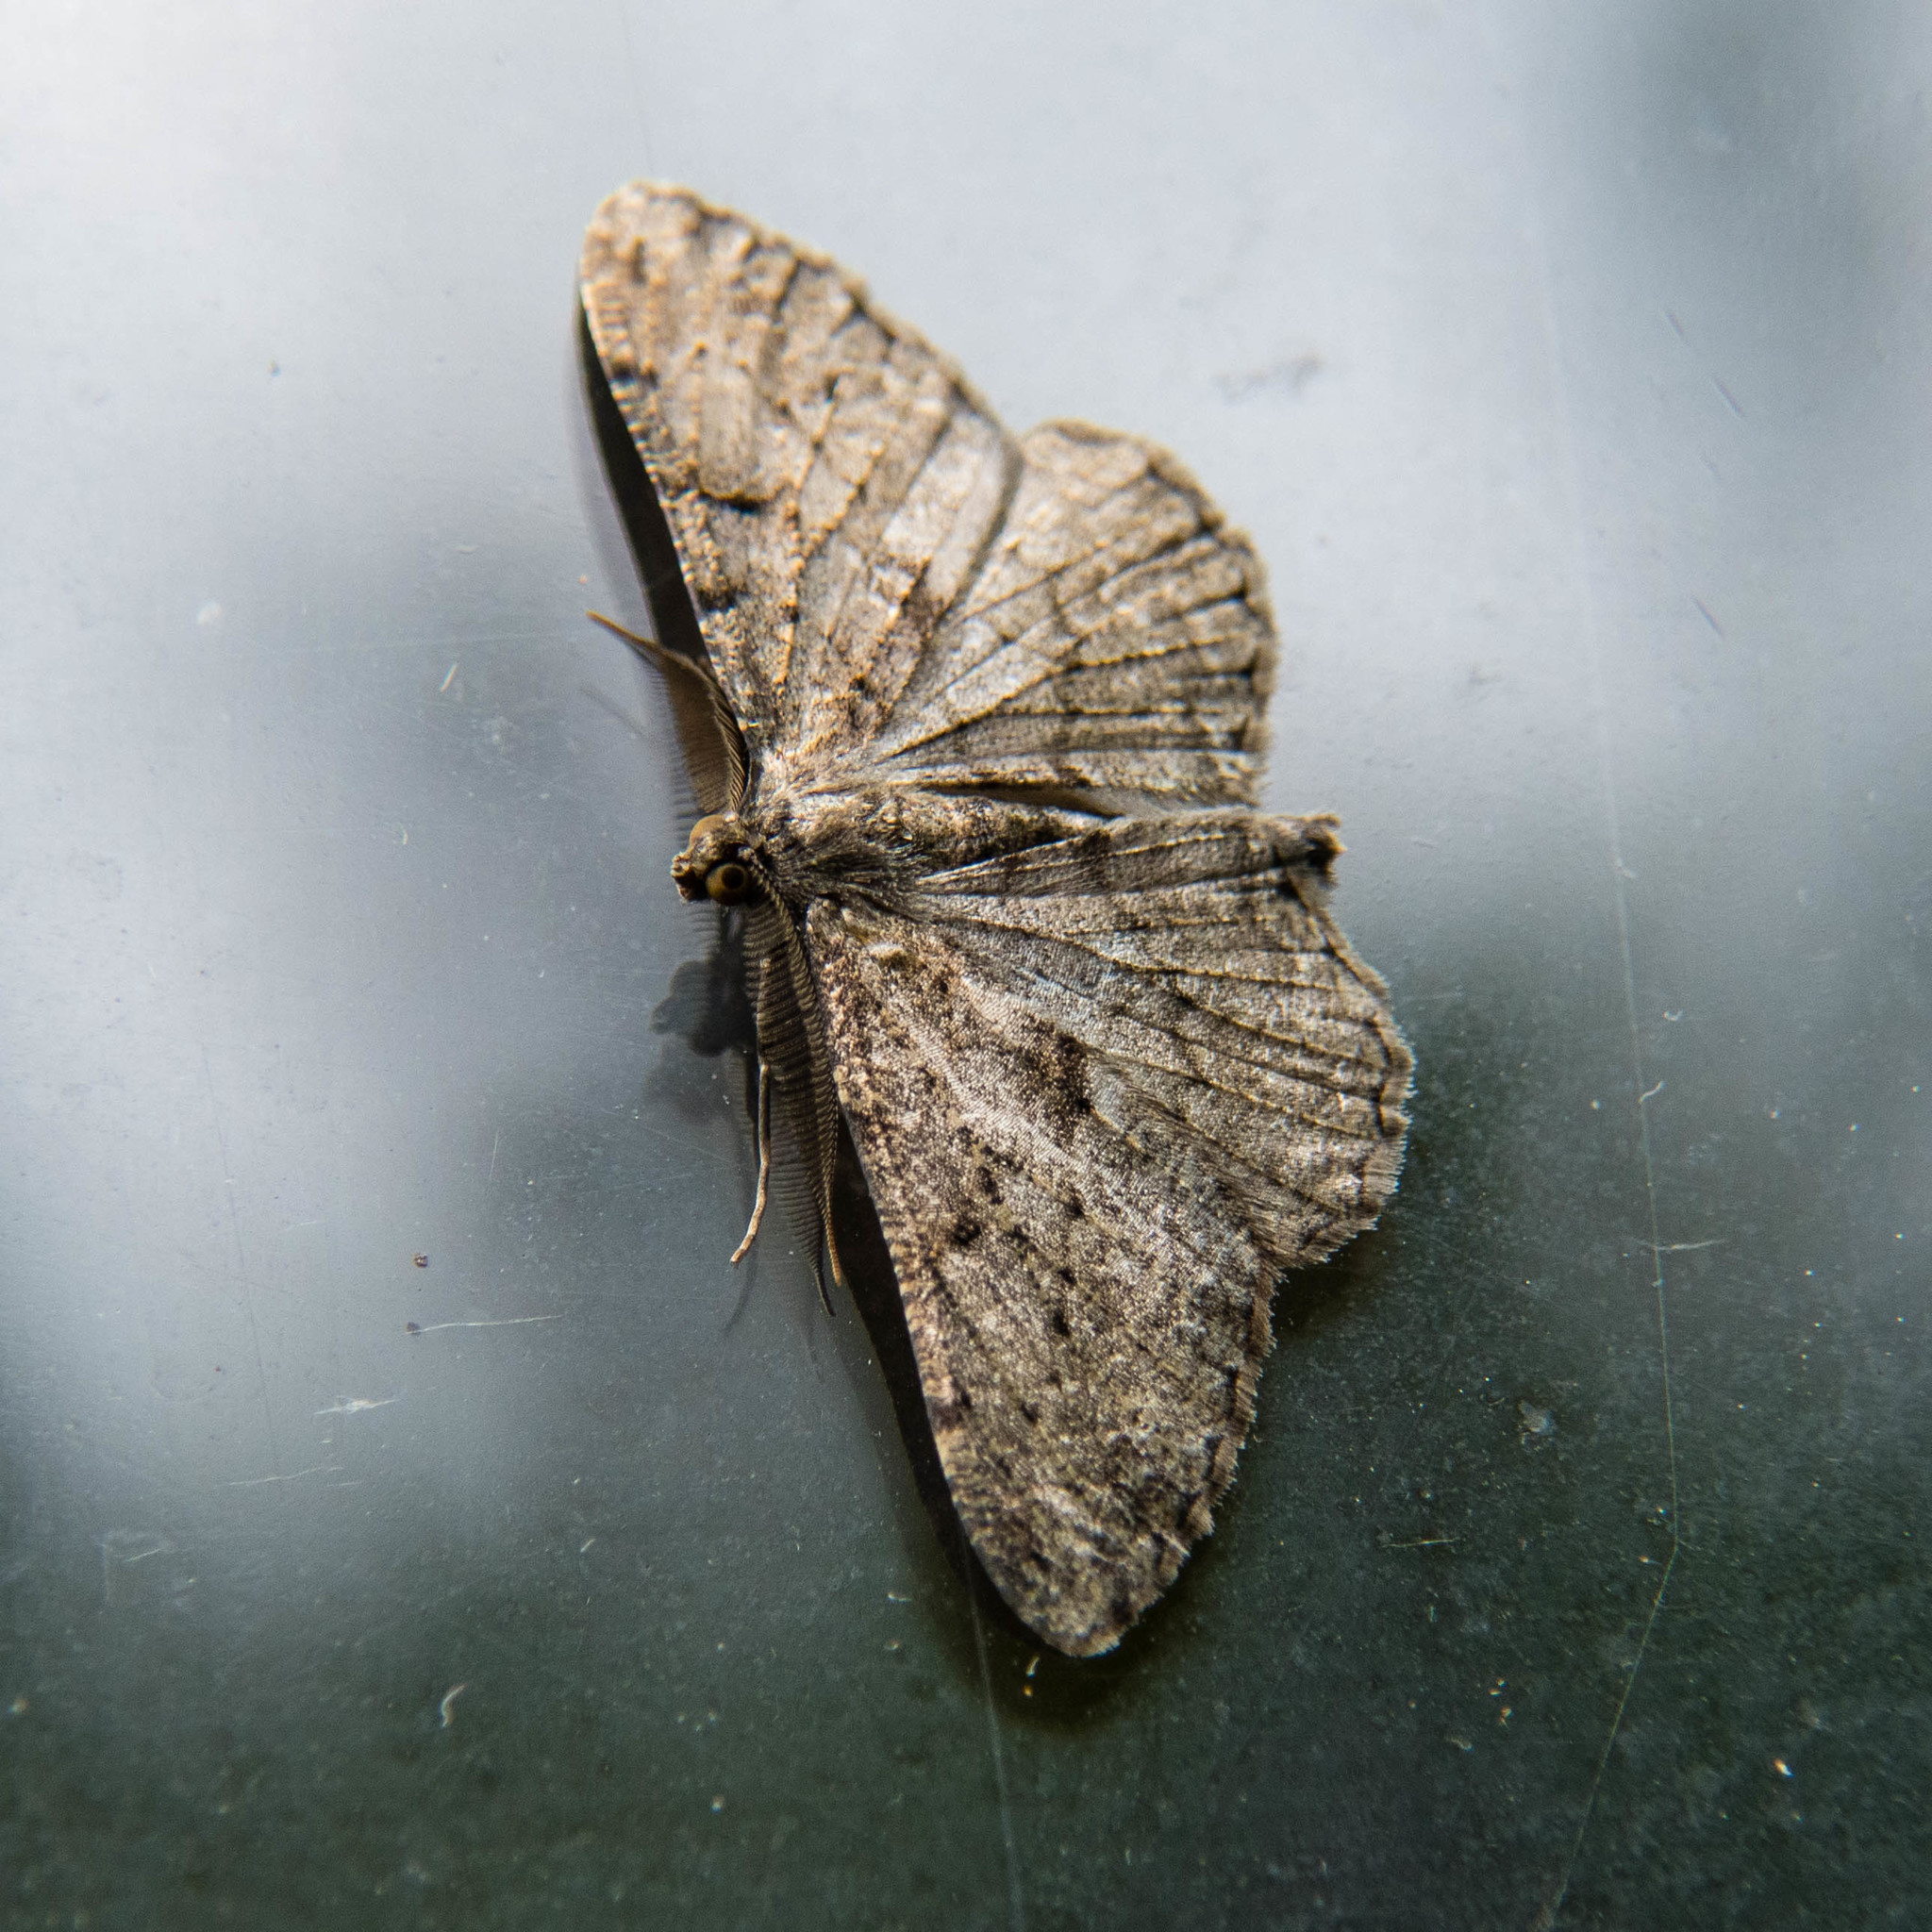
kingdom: Animalia
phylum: Arthropoda
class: Insecta
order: Lepidoptera
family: Geometridae
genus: Peribatodes
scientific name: Peribatodes rhomboidaria
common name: Willow beauty
